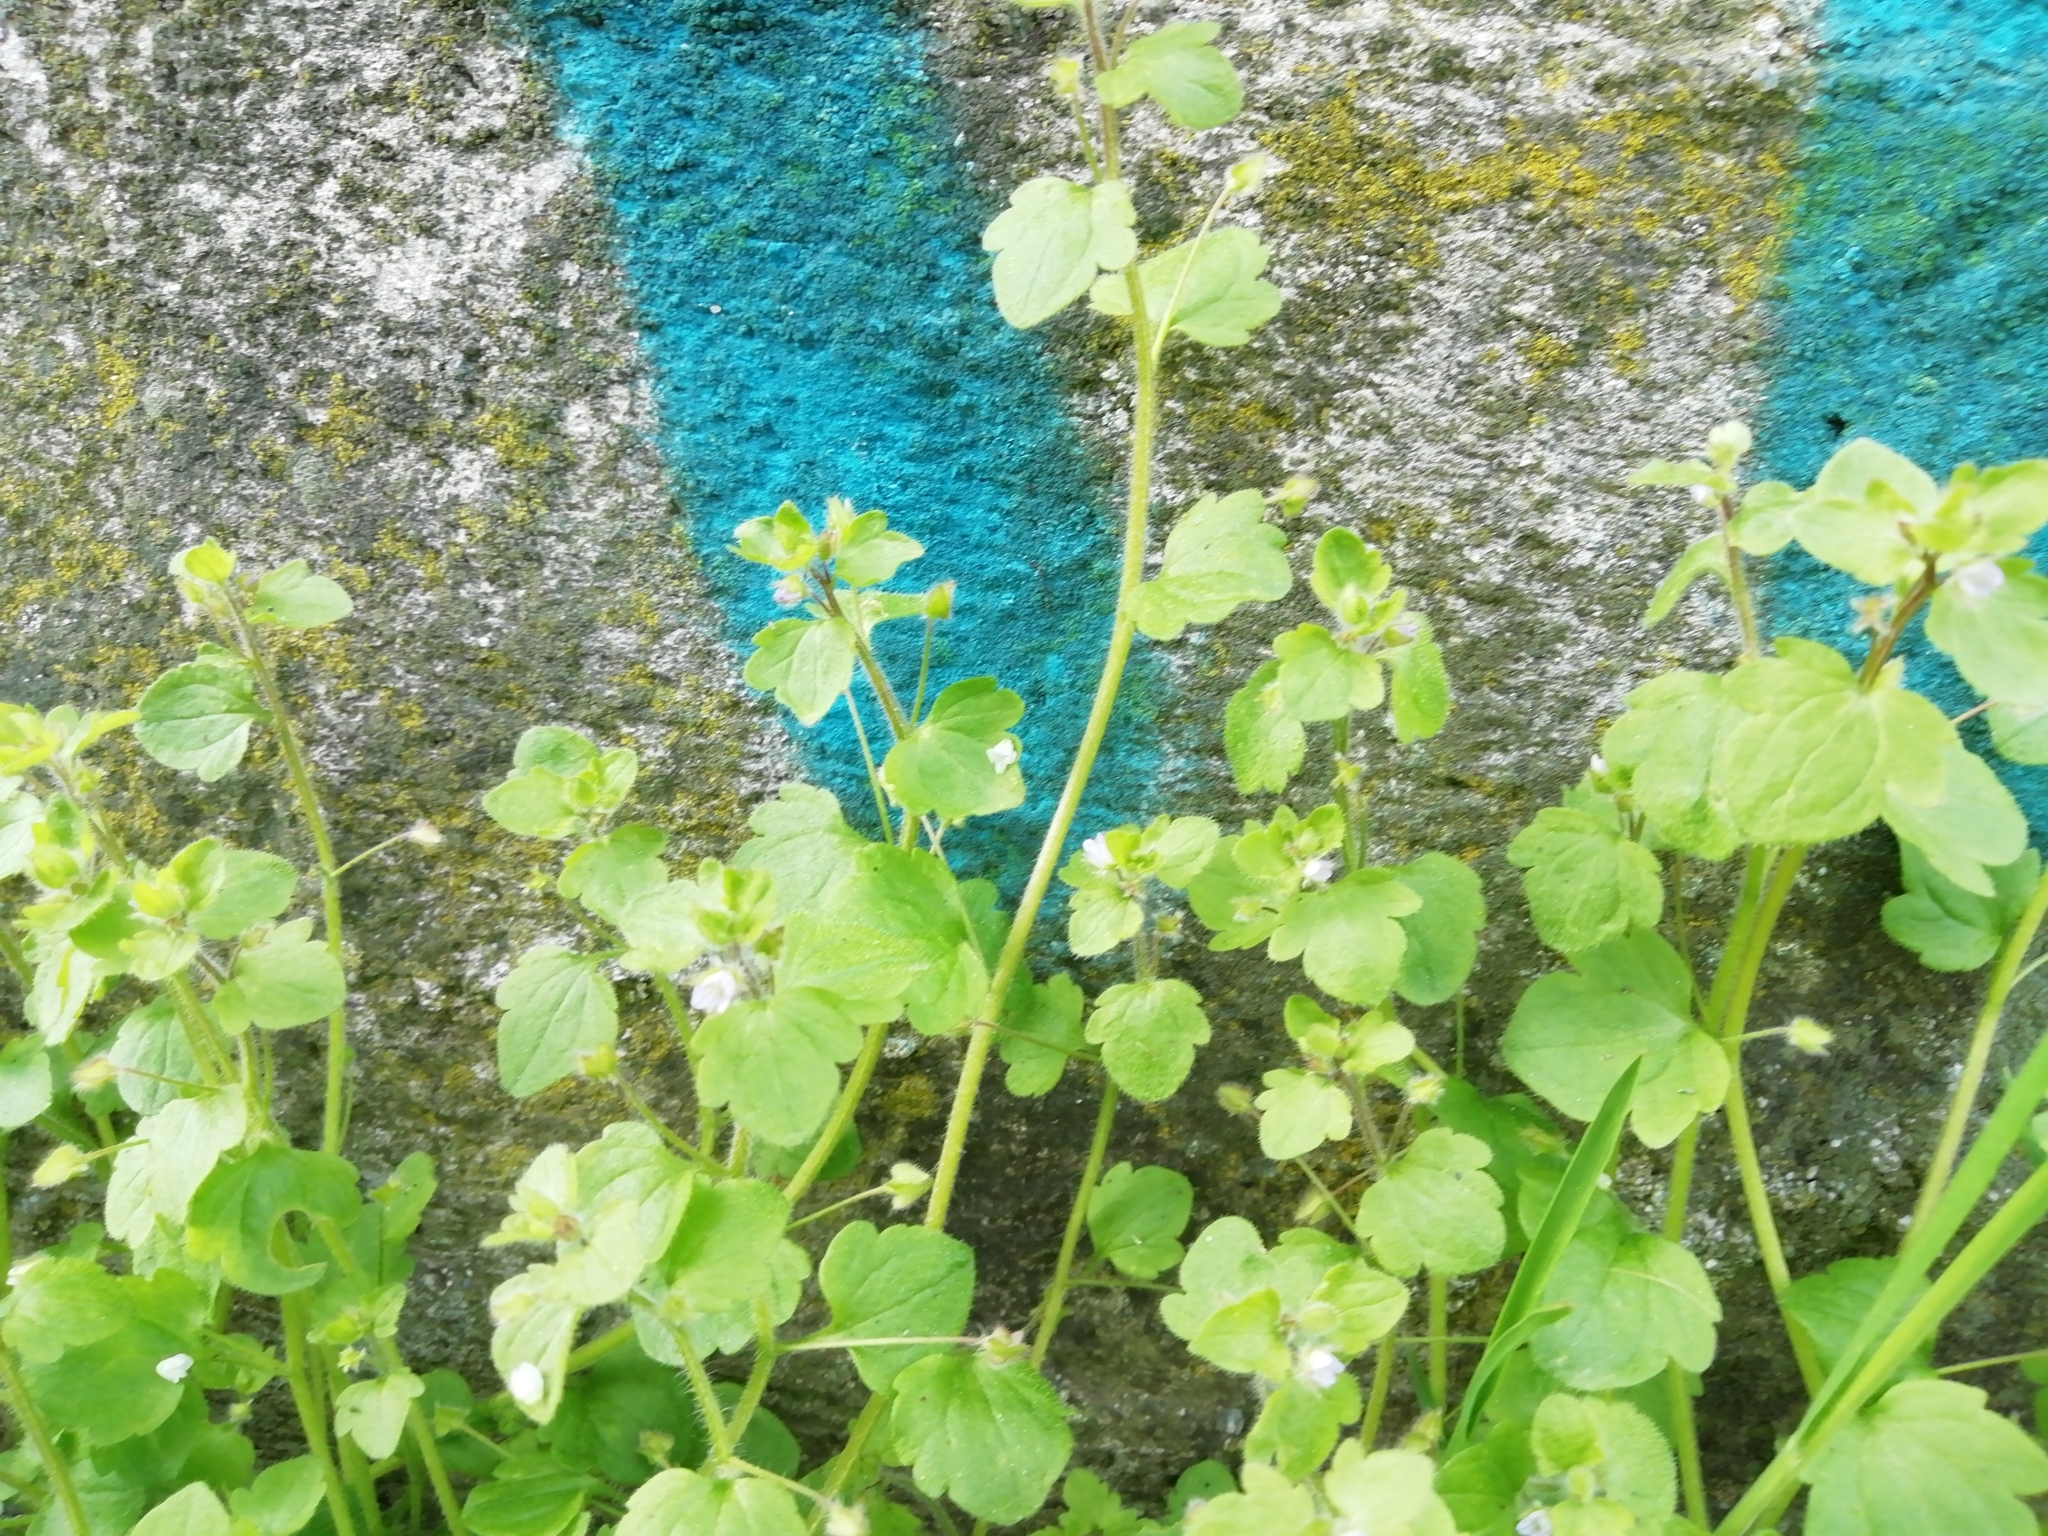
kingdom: Plantae
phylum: Tracheophyta
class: Magnoliopsida
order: Lamiales
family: Plantaginaceae
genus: Veronica
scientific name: Veronica sublobata
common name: False ivy-leaved speedwell
